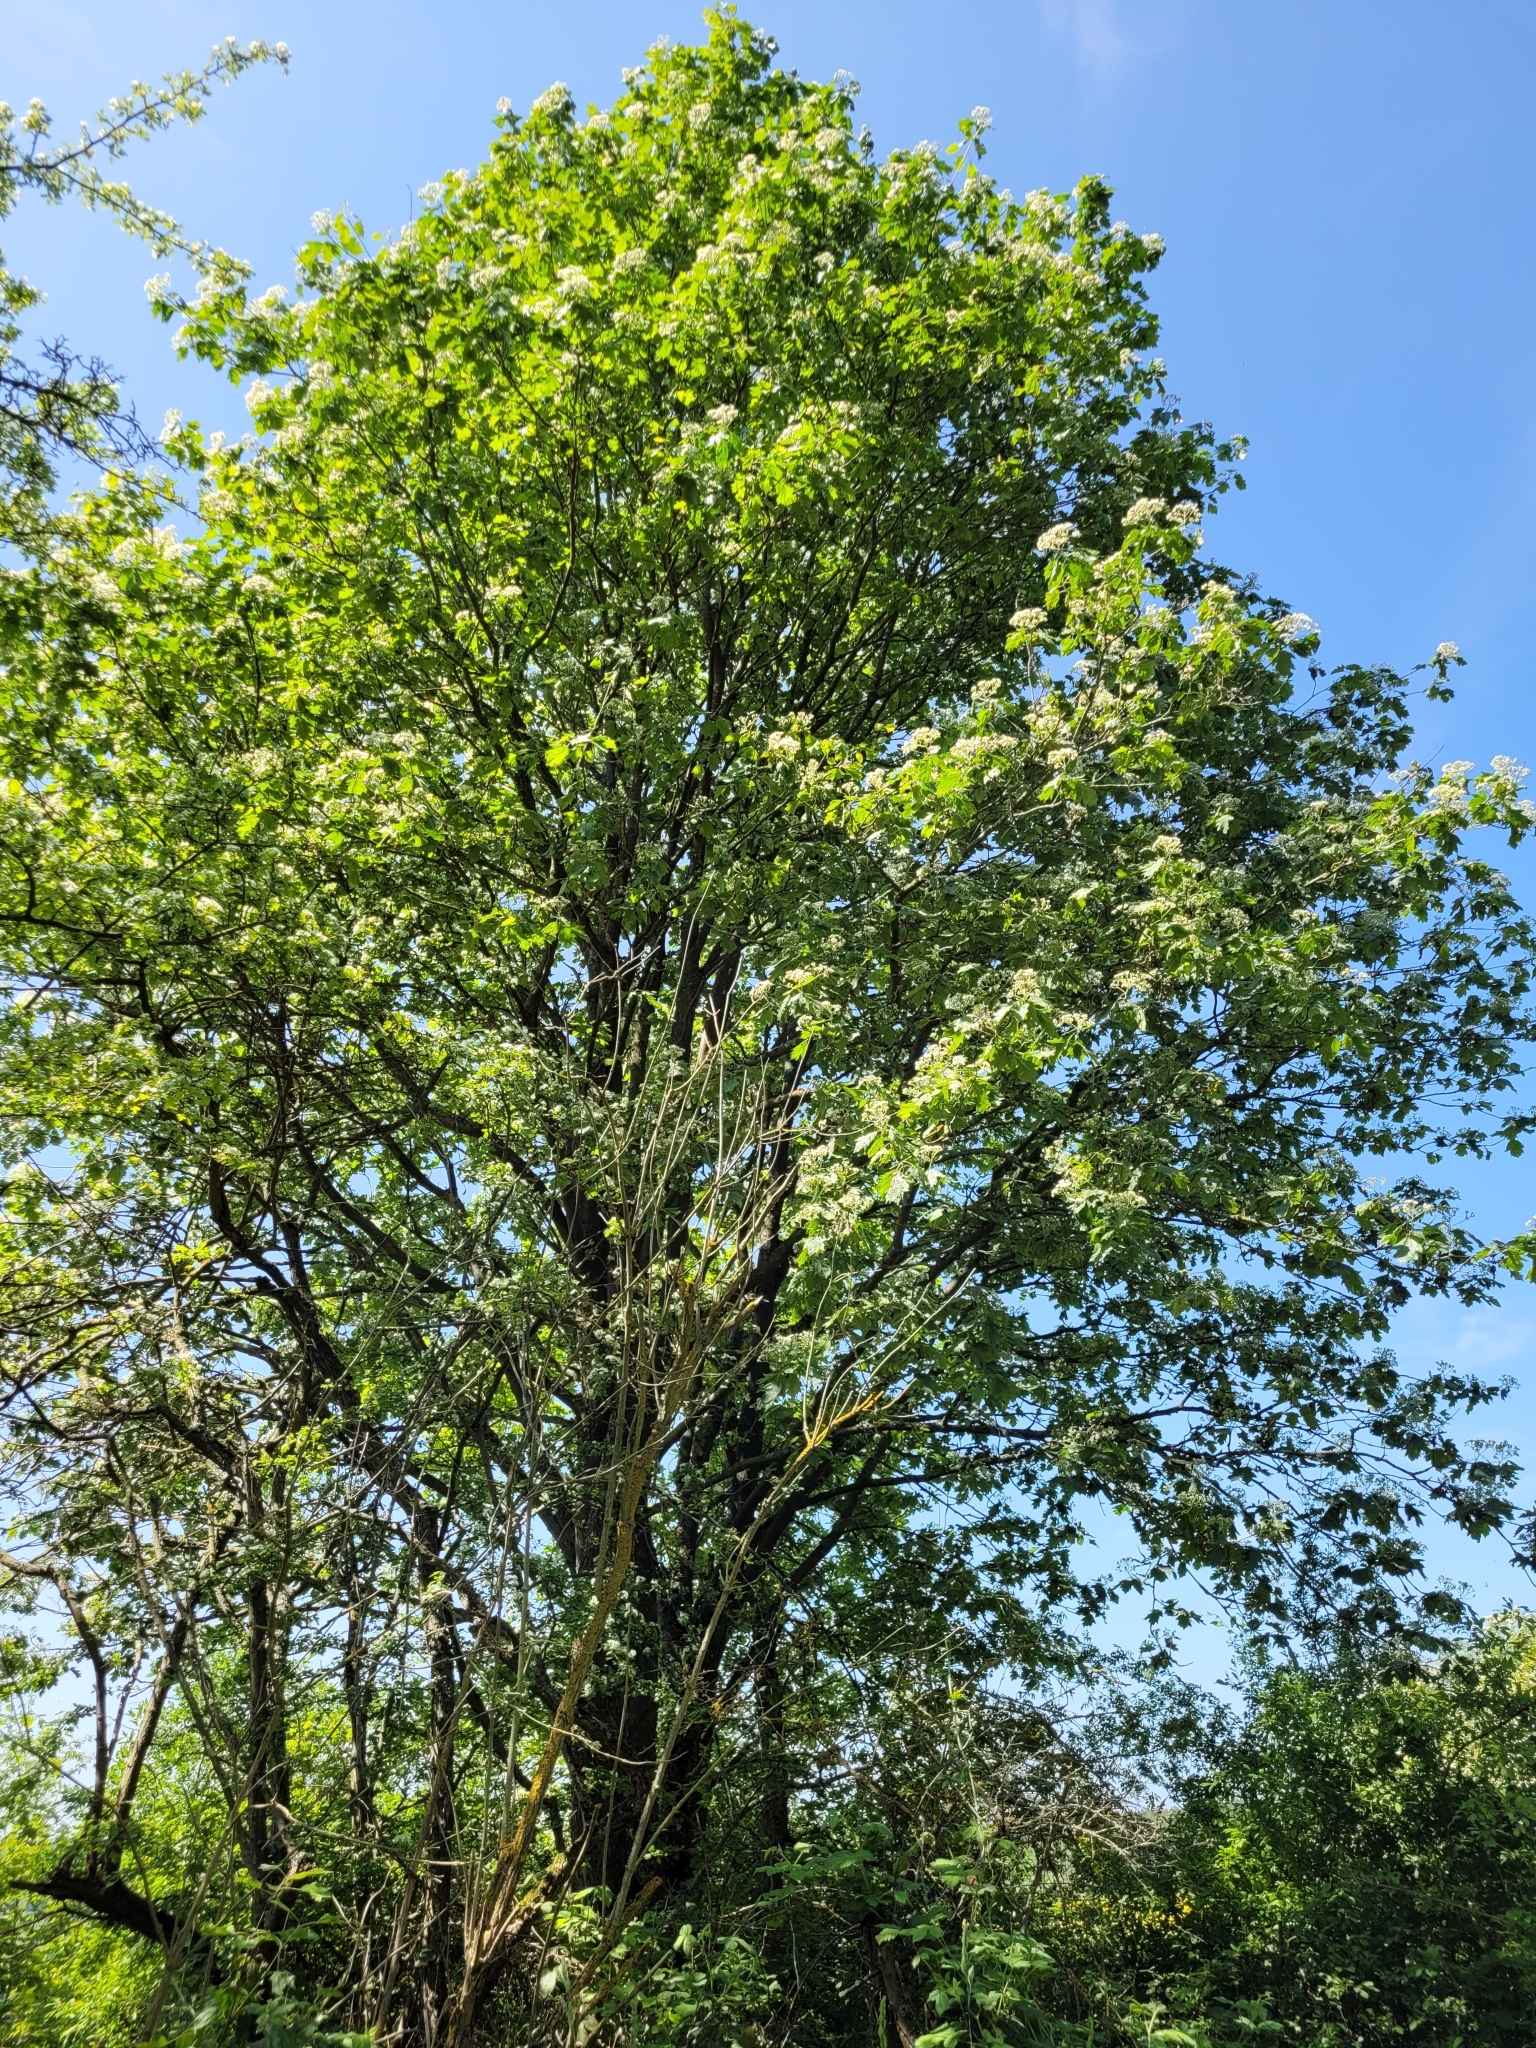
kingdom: Plantae
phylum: Tracheophyta
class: Magnoliopsida
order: Rosales
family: Rosaceae
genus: Torminalis
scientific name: Torminalis glaberrima
